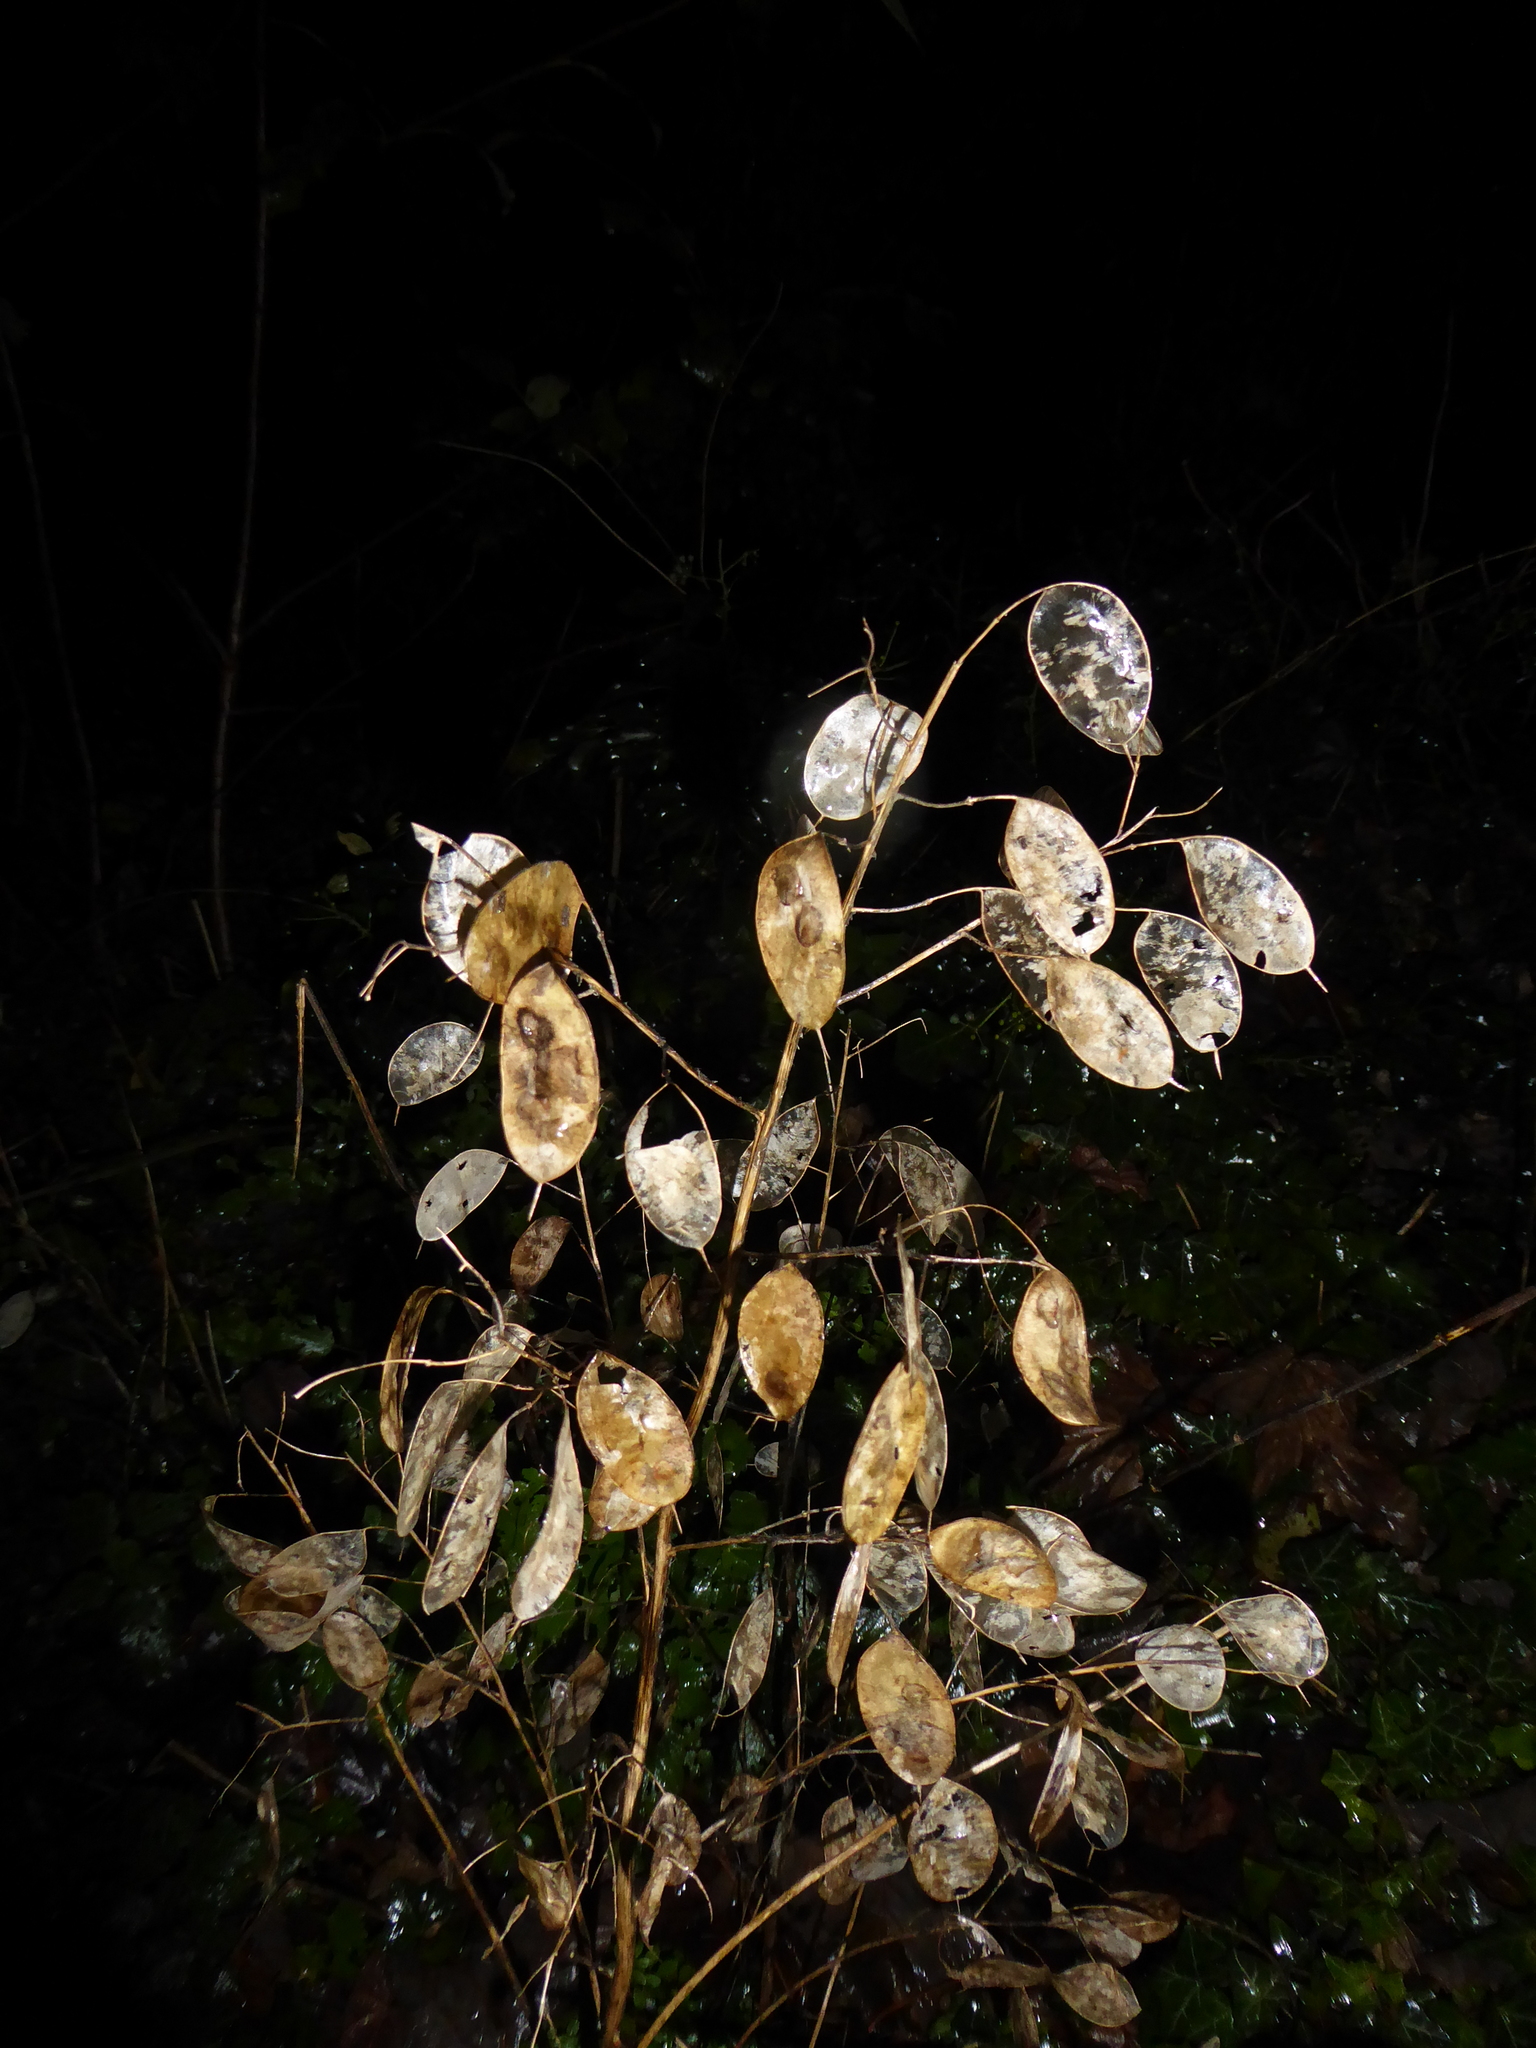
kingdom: Plantae
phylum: Tracheophyta
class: Magnoliopsida
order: Brassicales
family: Brassicaceae
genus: Lunaria
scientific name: Lunaria annua
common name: Honesty
